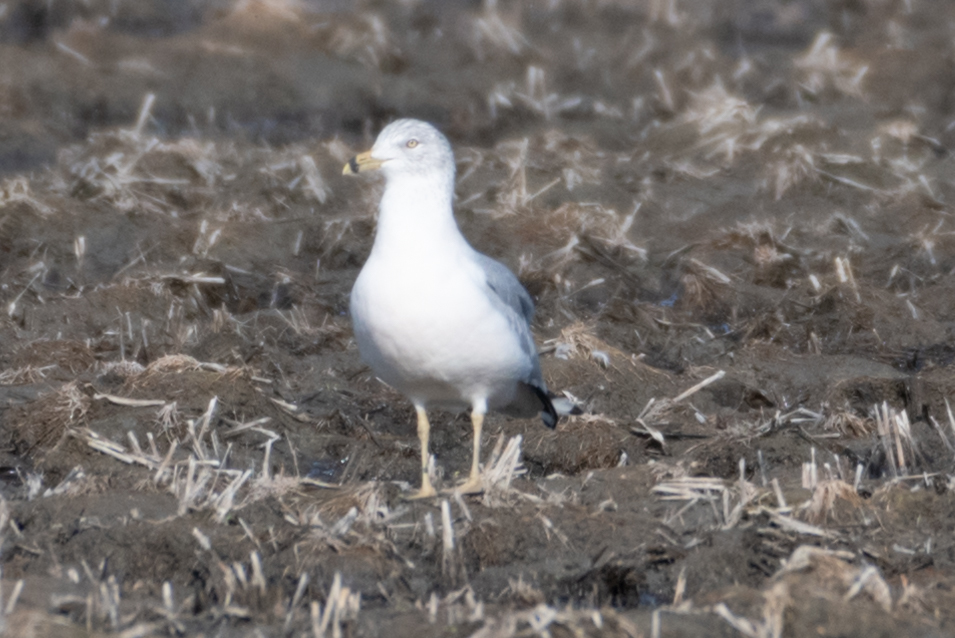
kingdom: Animalia
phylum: Chordata
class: Aves
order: Charadriiformes
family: Laridae
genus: Larus
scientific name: Larus delawarensis
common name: Ring-billed gull
